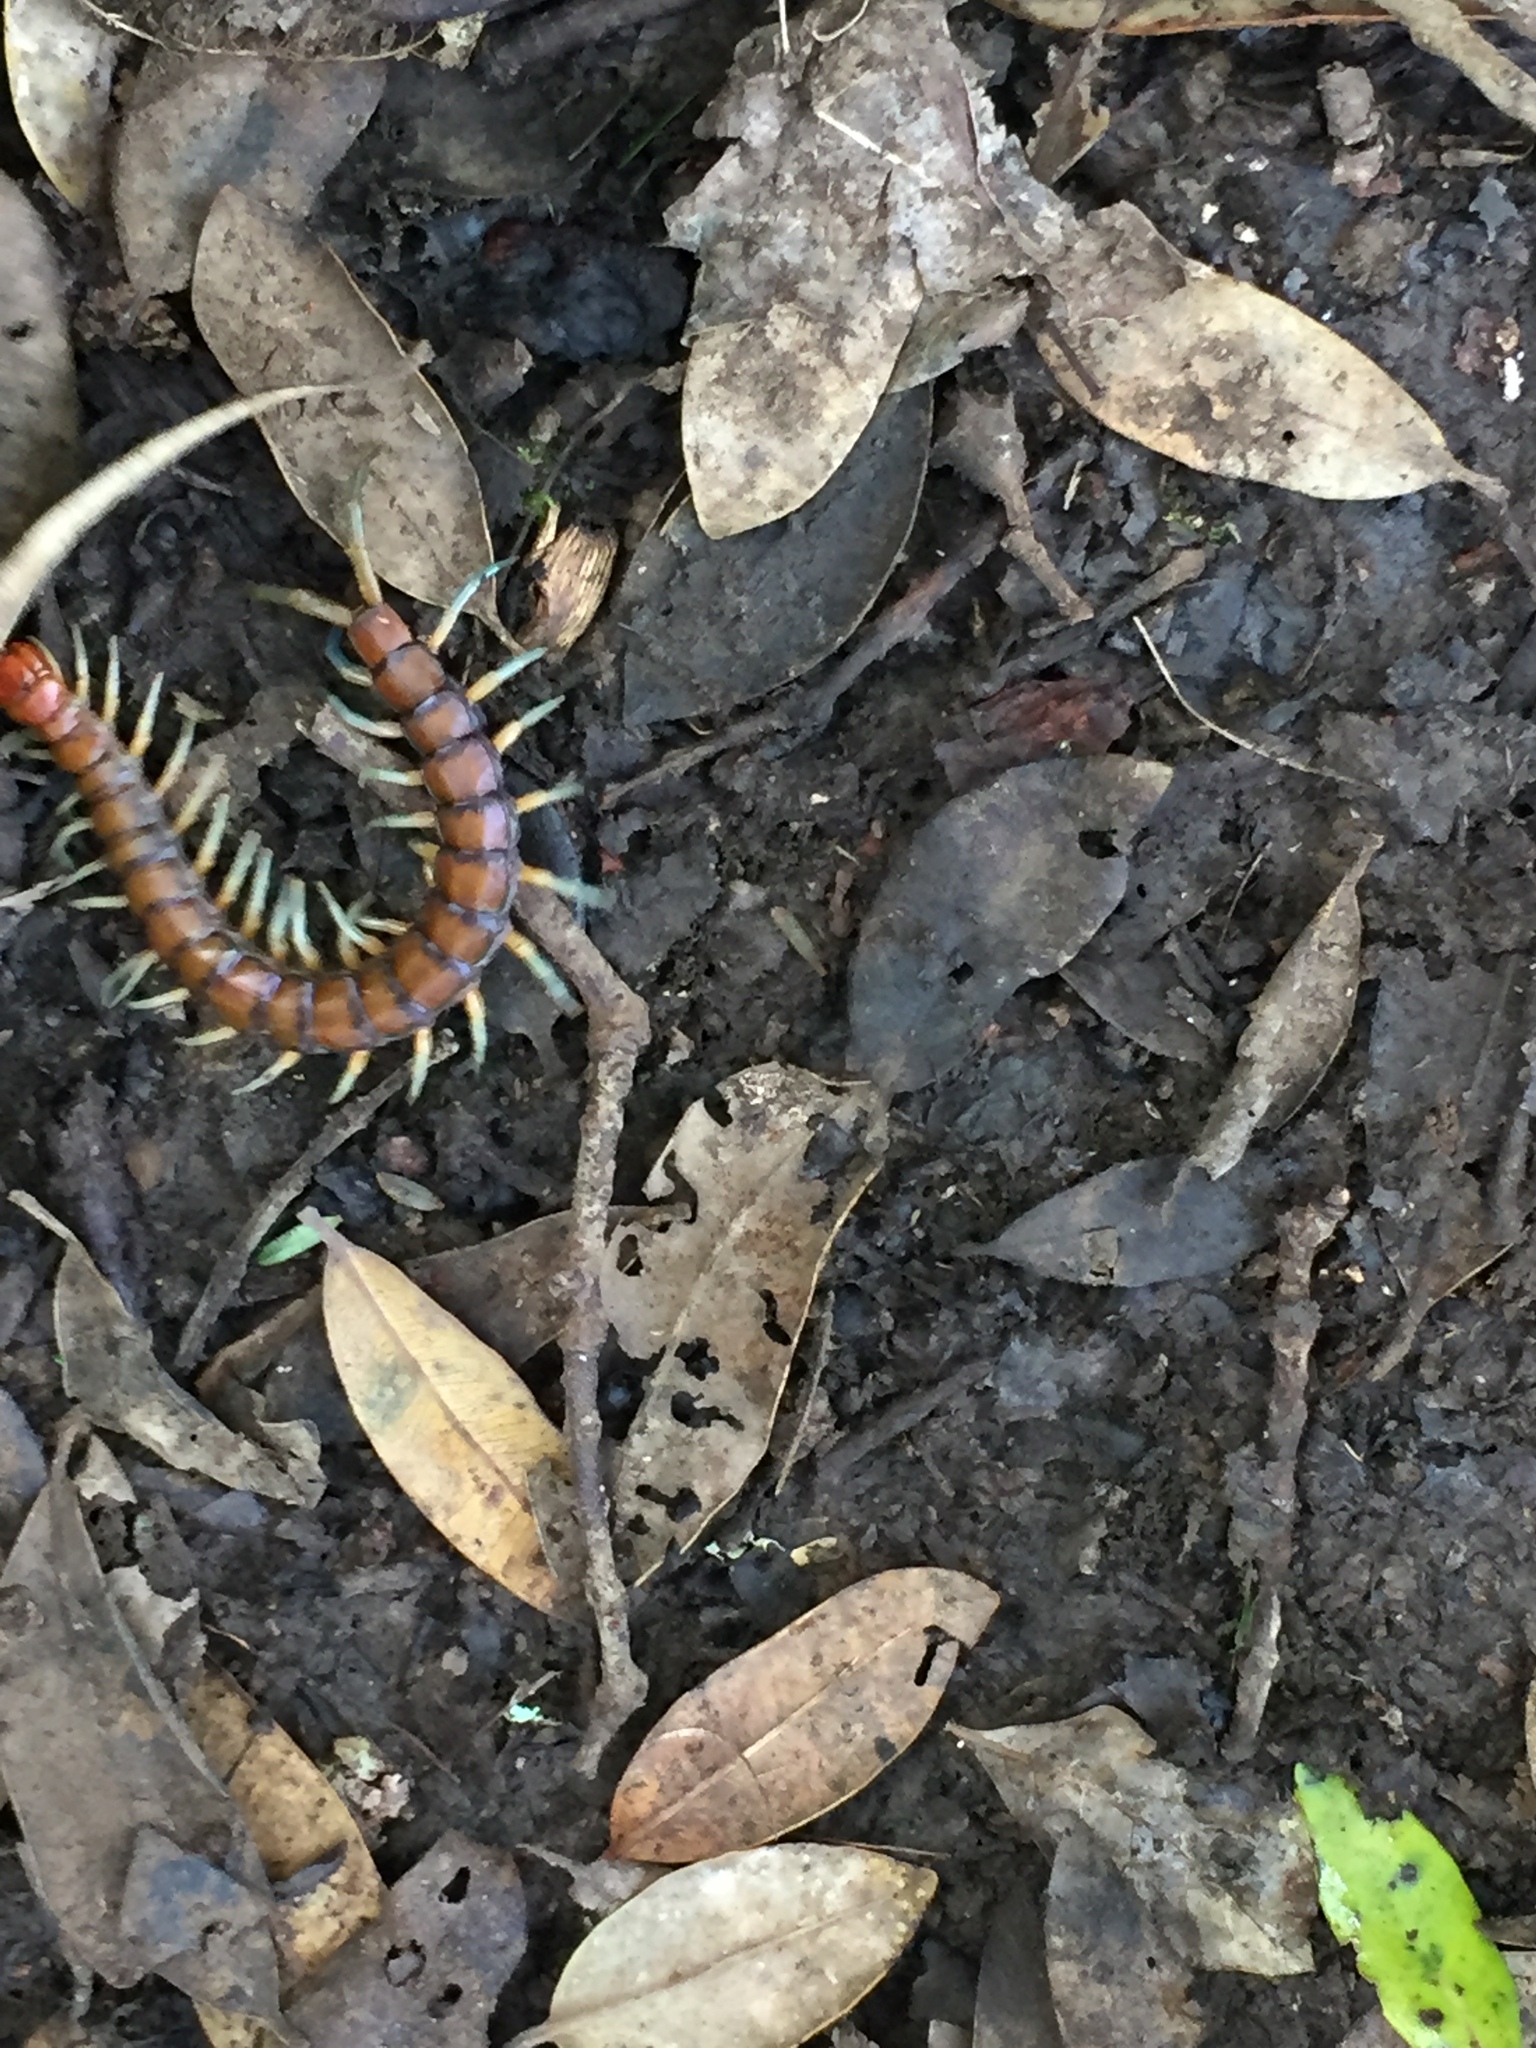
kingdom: Animalia
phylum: Arthropoda
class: Chilopoda
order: Scolopendromorpha
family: Scolopendridae
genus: Cormocephalus
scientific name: Cormocephalus rubriceps
